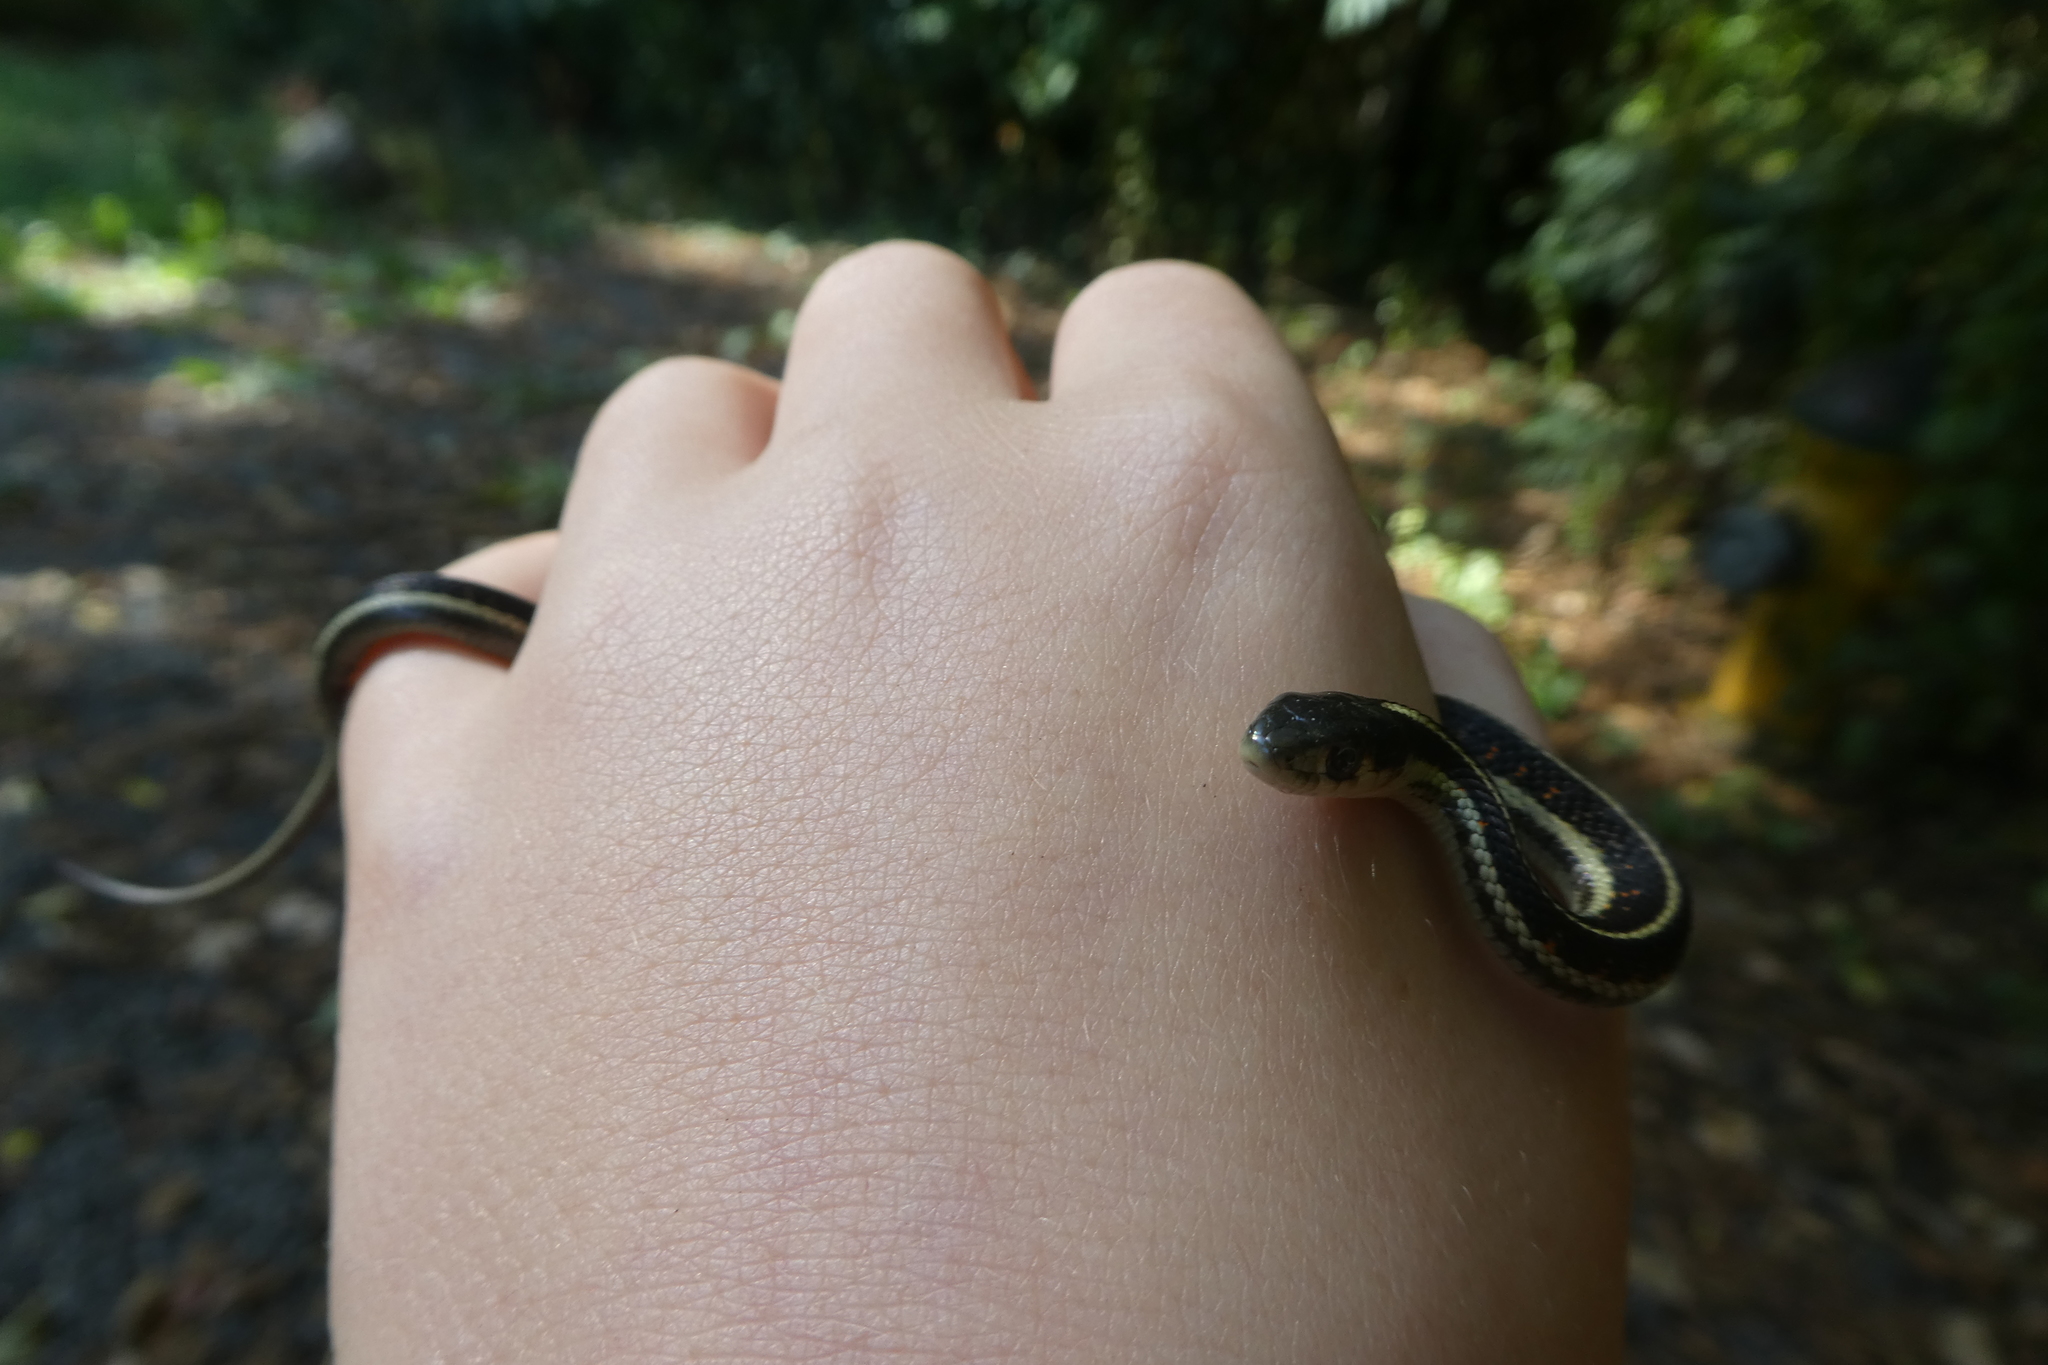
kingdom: Animalia
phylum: Chordata
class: Squamata
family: Colubridae
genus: Thamnophis
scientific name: Thamnophis sirtalis
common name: Common garter snake
